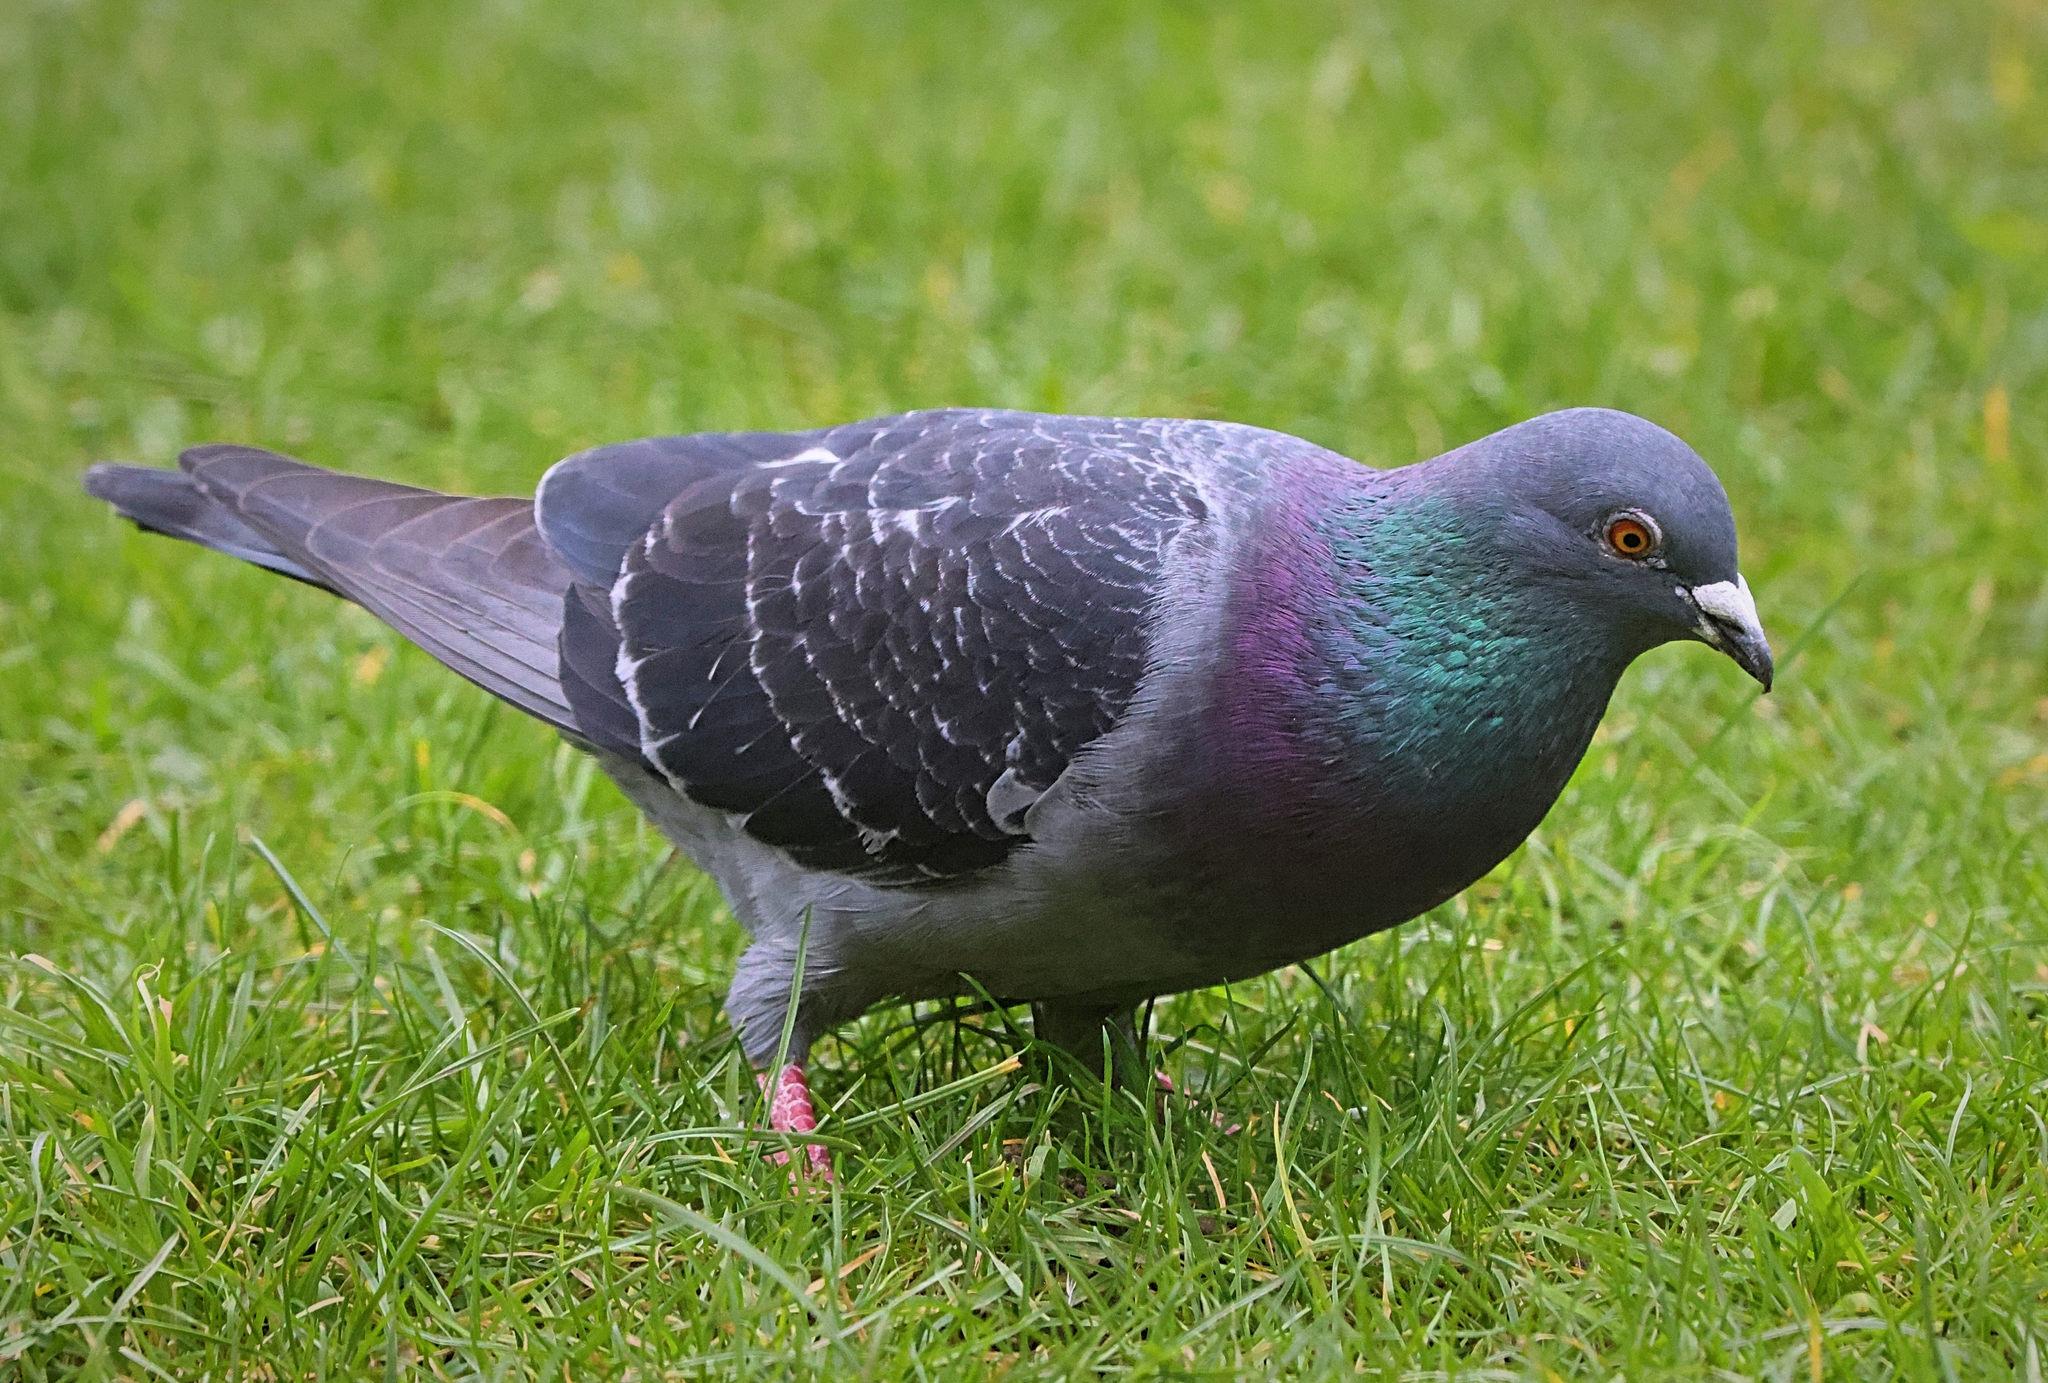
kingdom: Animalia
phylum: Chordata
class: Aves
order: Columbiformes
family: Columbidae
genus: Columba
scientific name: Columba livia
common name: Rock pigeon
